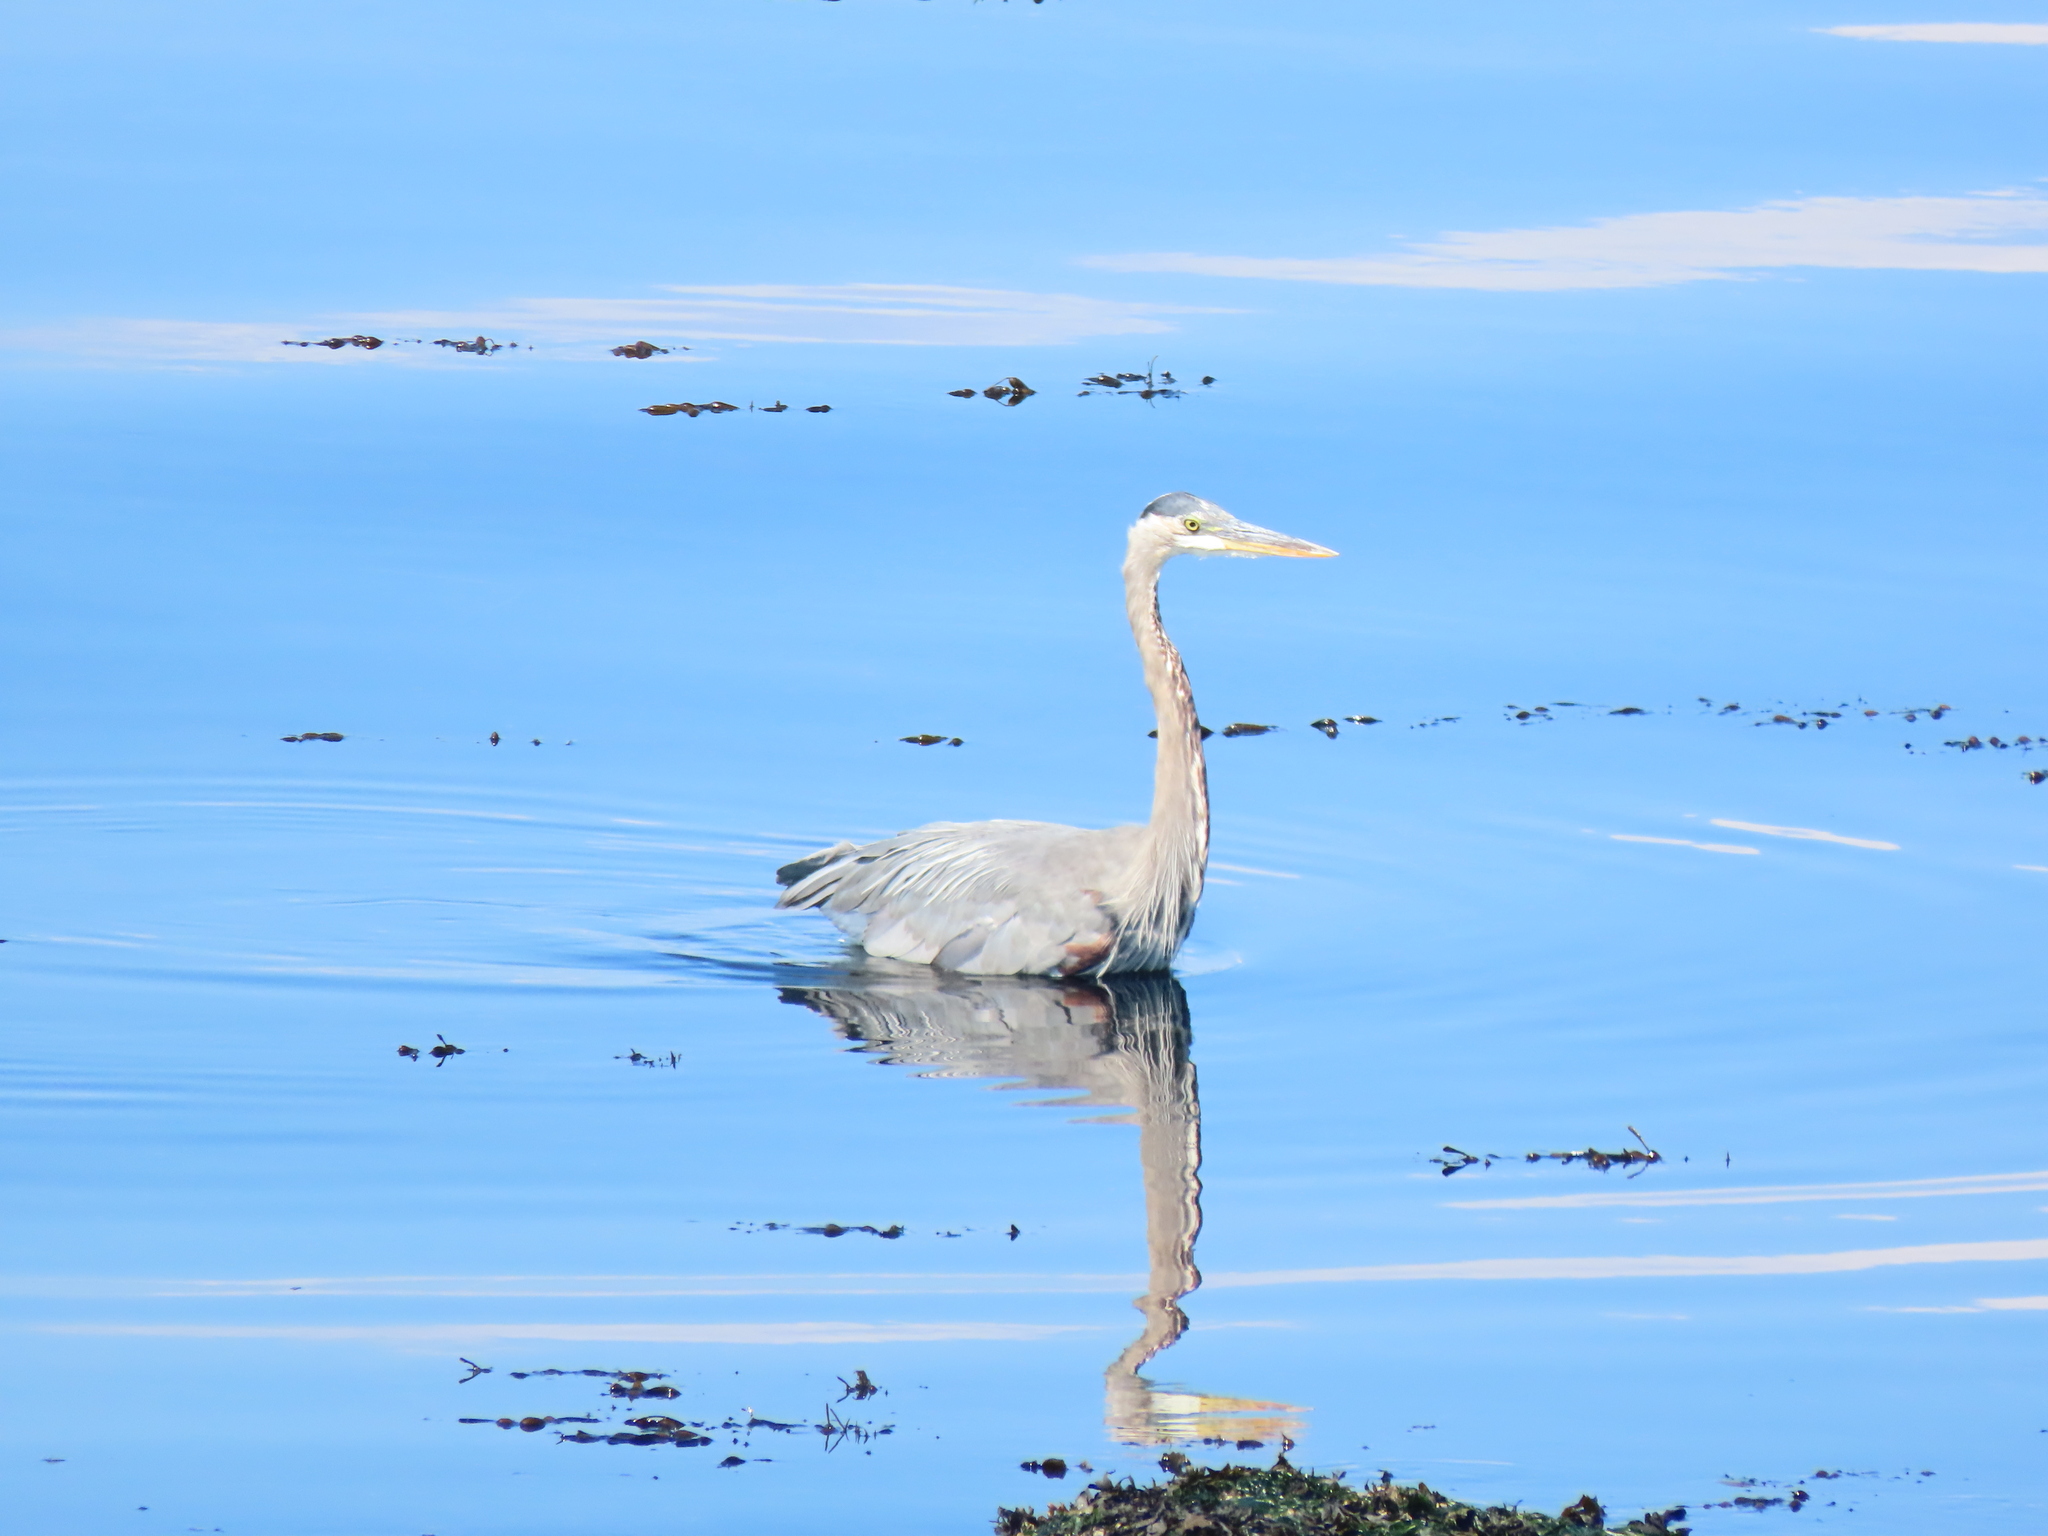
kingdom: Animalia
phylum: Chordata
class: Aves
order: Pelecaniformes
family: Ardeidae
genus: Ardea
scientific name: Ardea herodias
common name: Great blue heron
